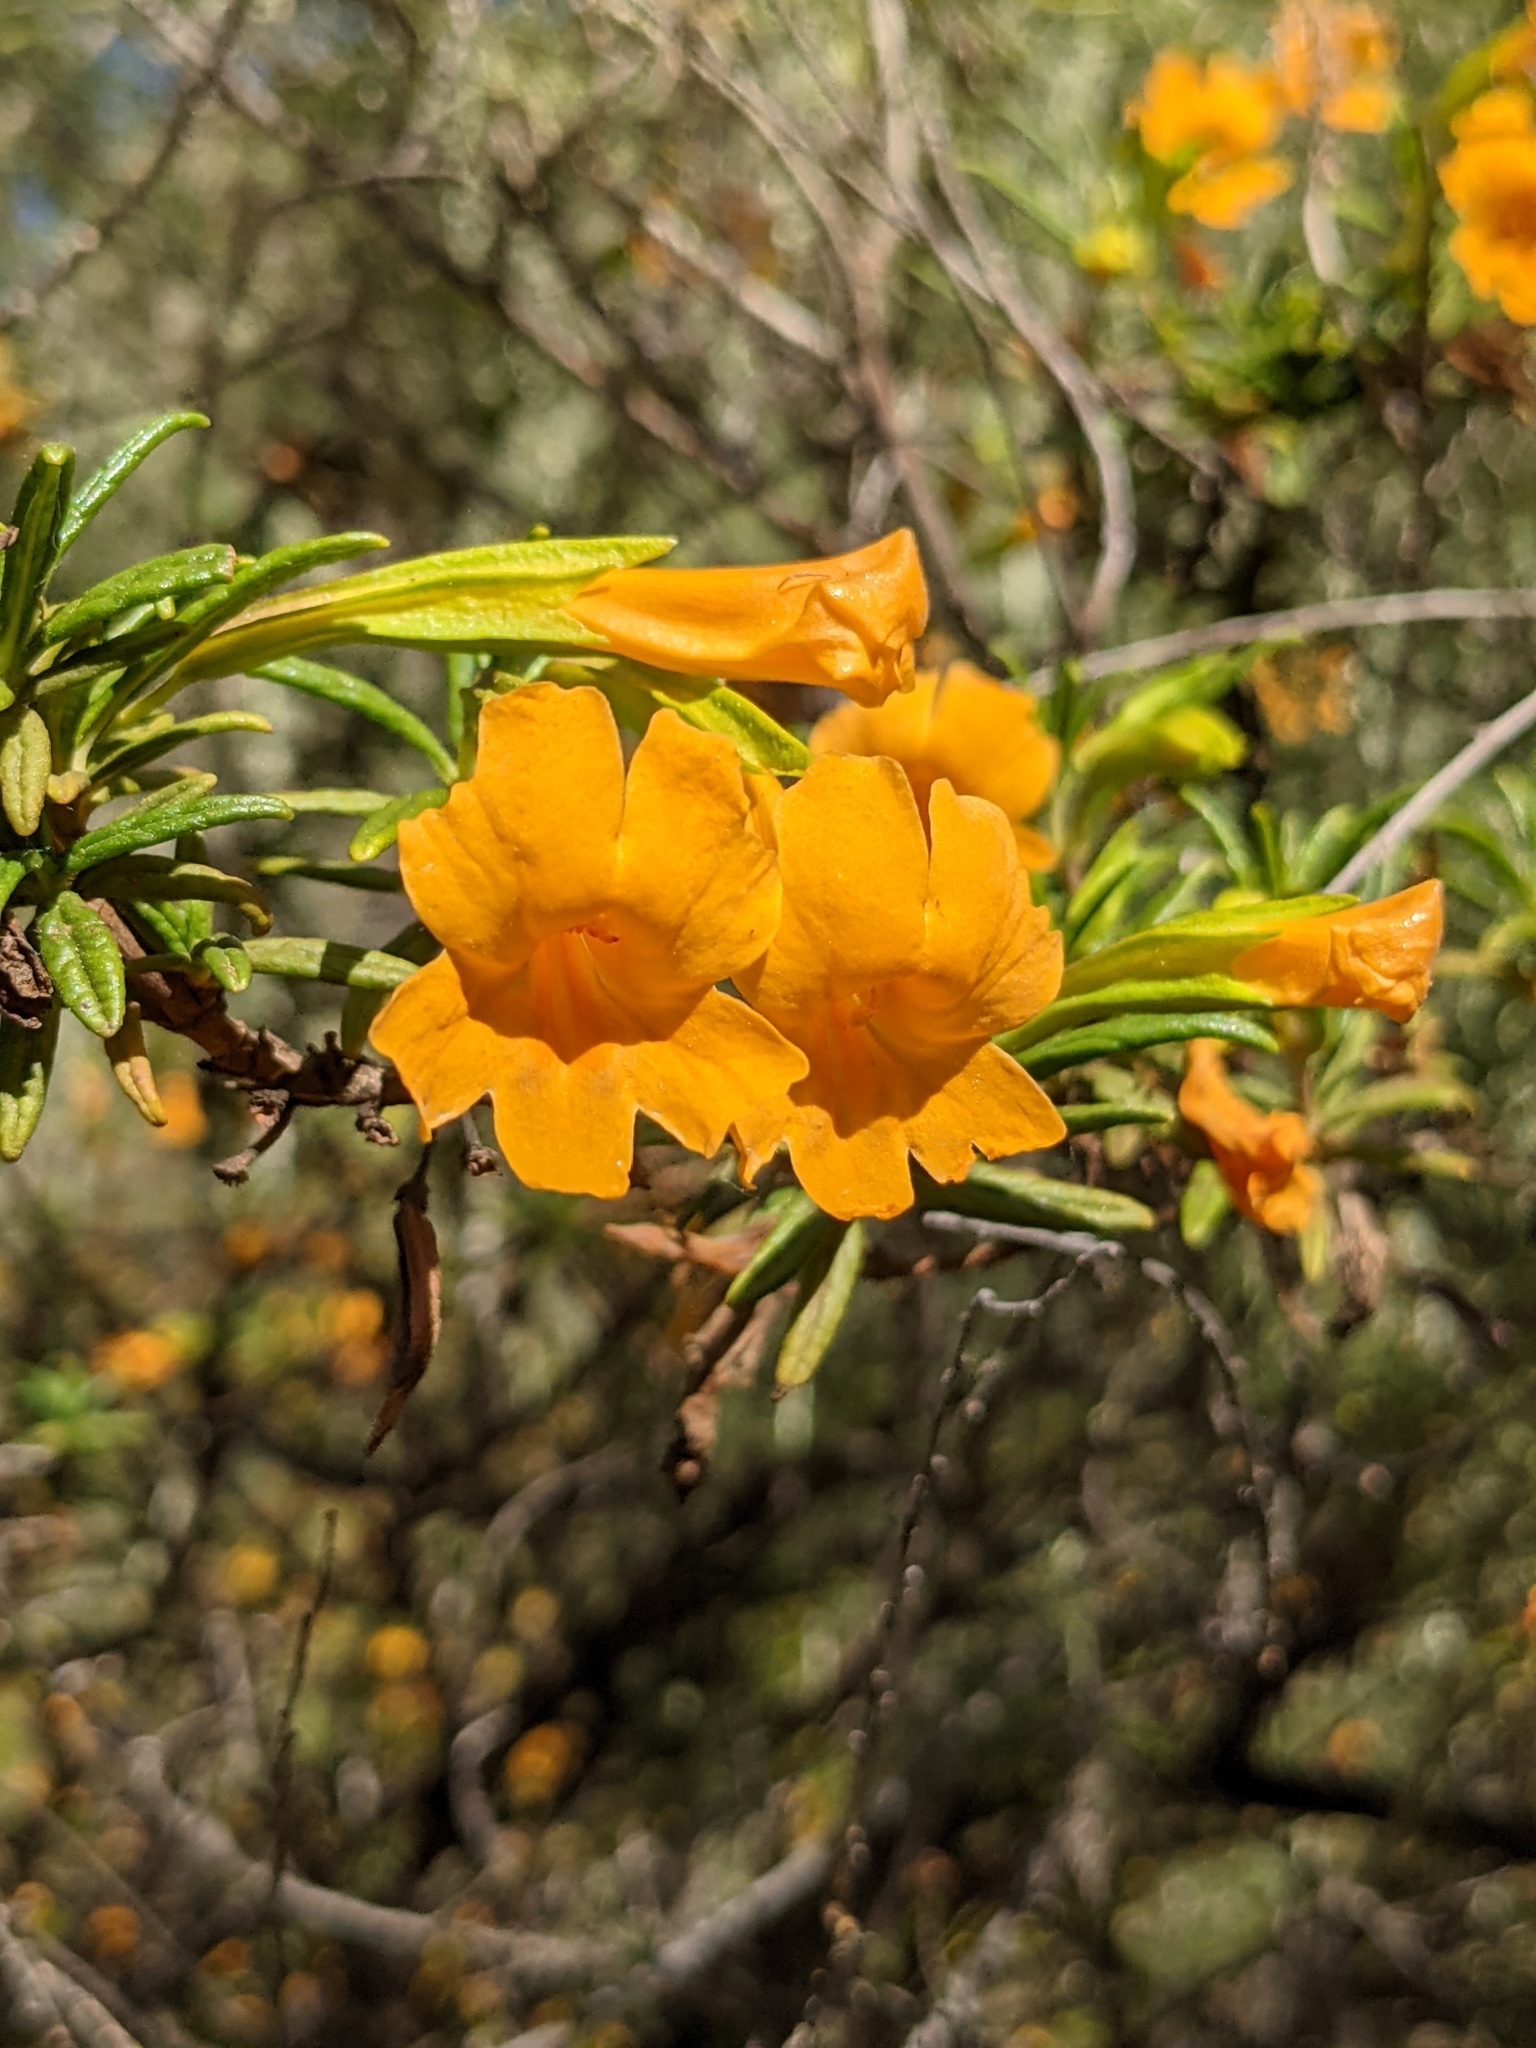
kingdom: Plantae
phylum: Tracheophyta
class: Magnoliopsida
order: Lamiales
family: Phrymaceae
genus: Diplacus
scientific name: Diplacus aurantiacus
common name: Bush monkey-flower
